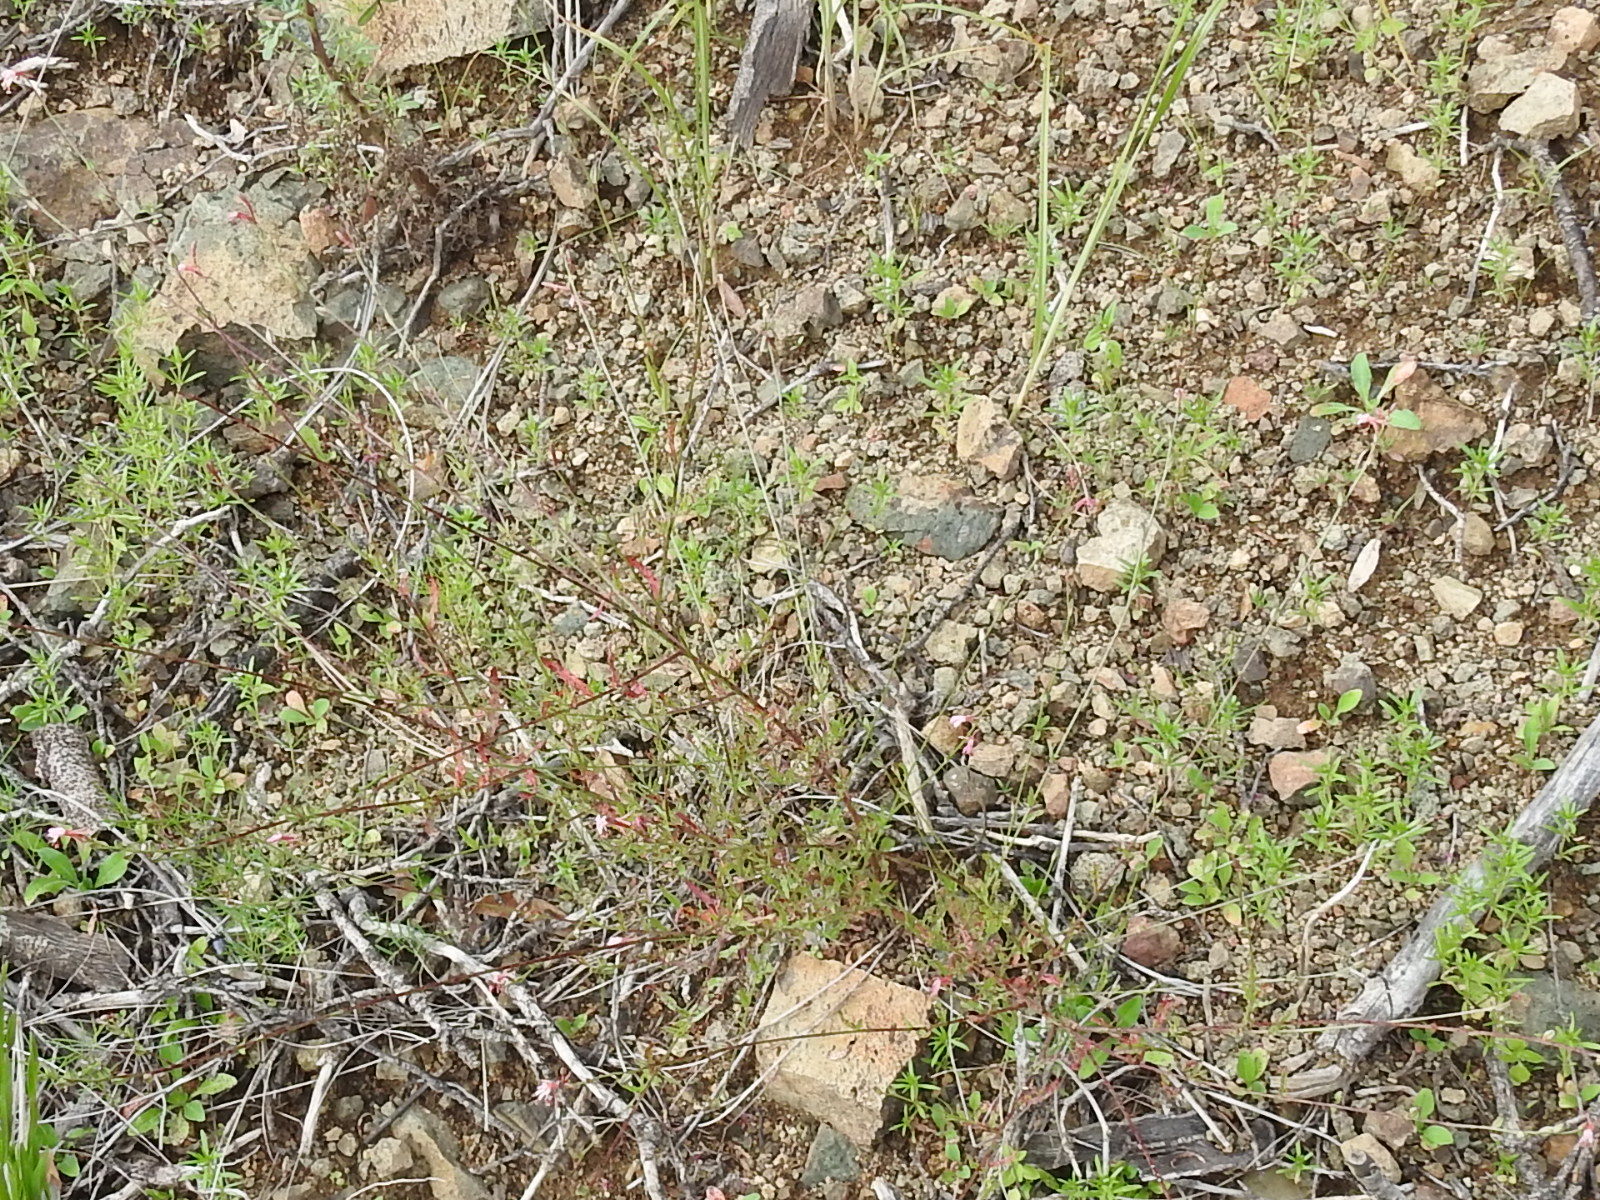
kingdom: Plantae
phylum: Tracheophyta
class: Magnoliopsida
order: Myrtales
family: Onagraceae
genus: Oenothera
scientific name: Oenothera podocarpa
